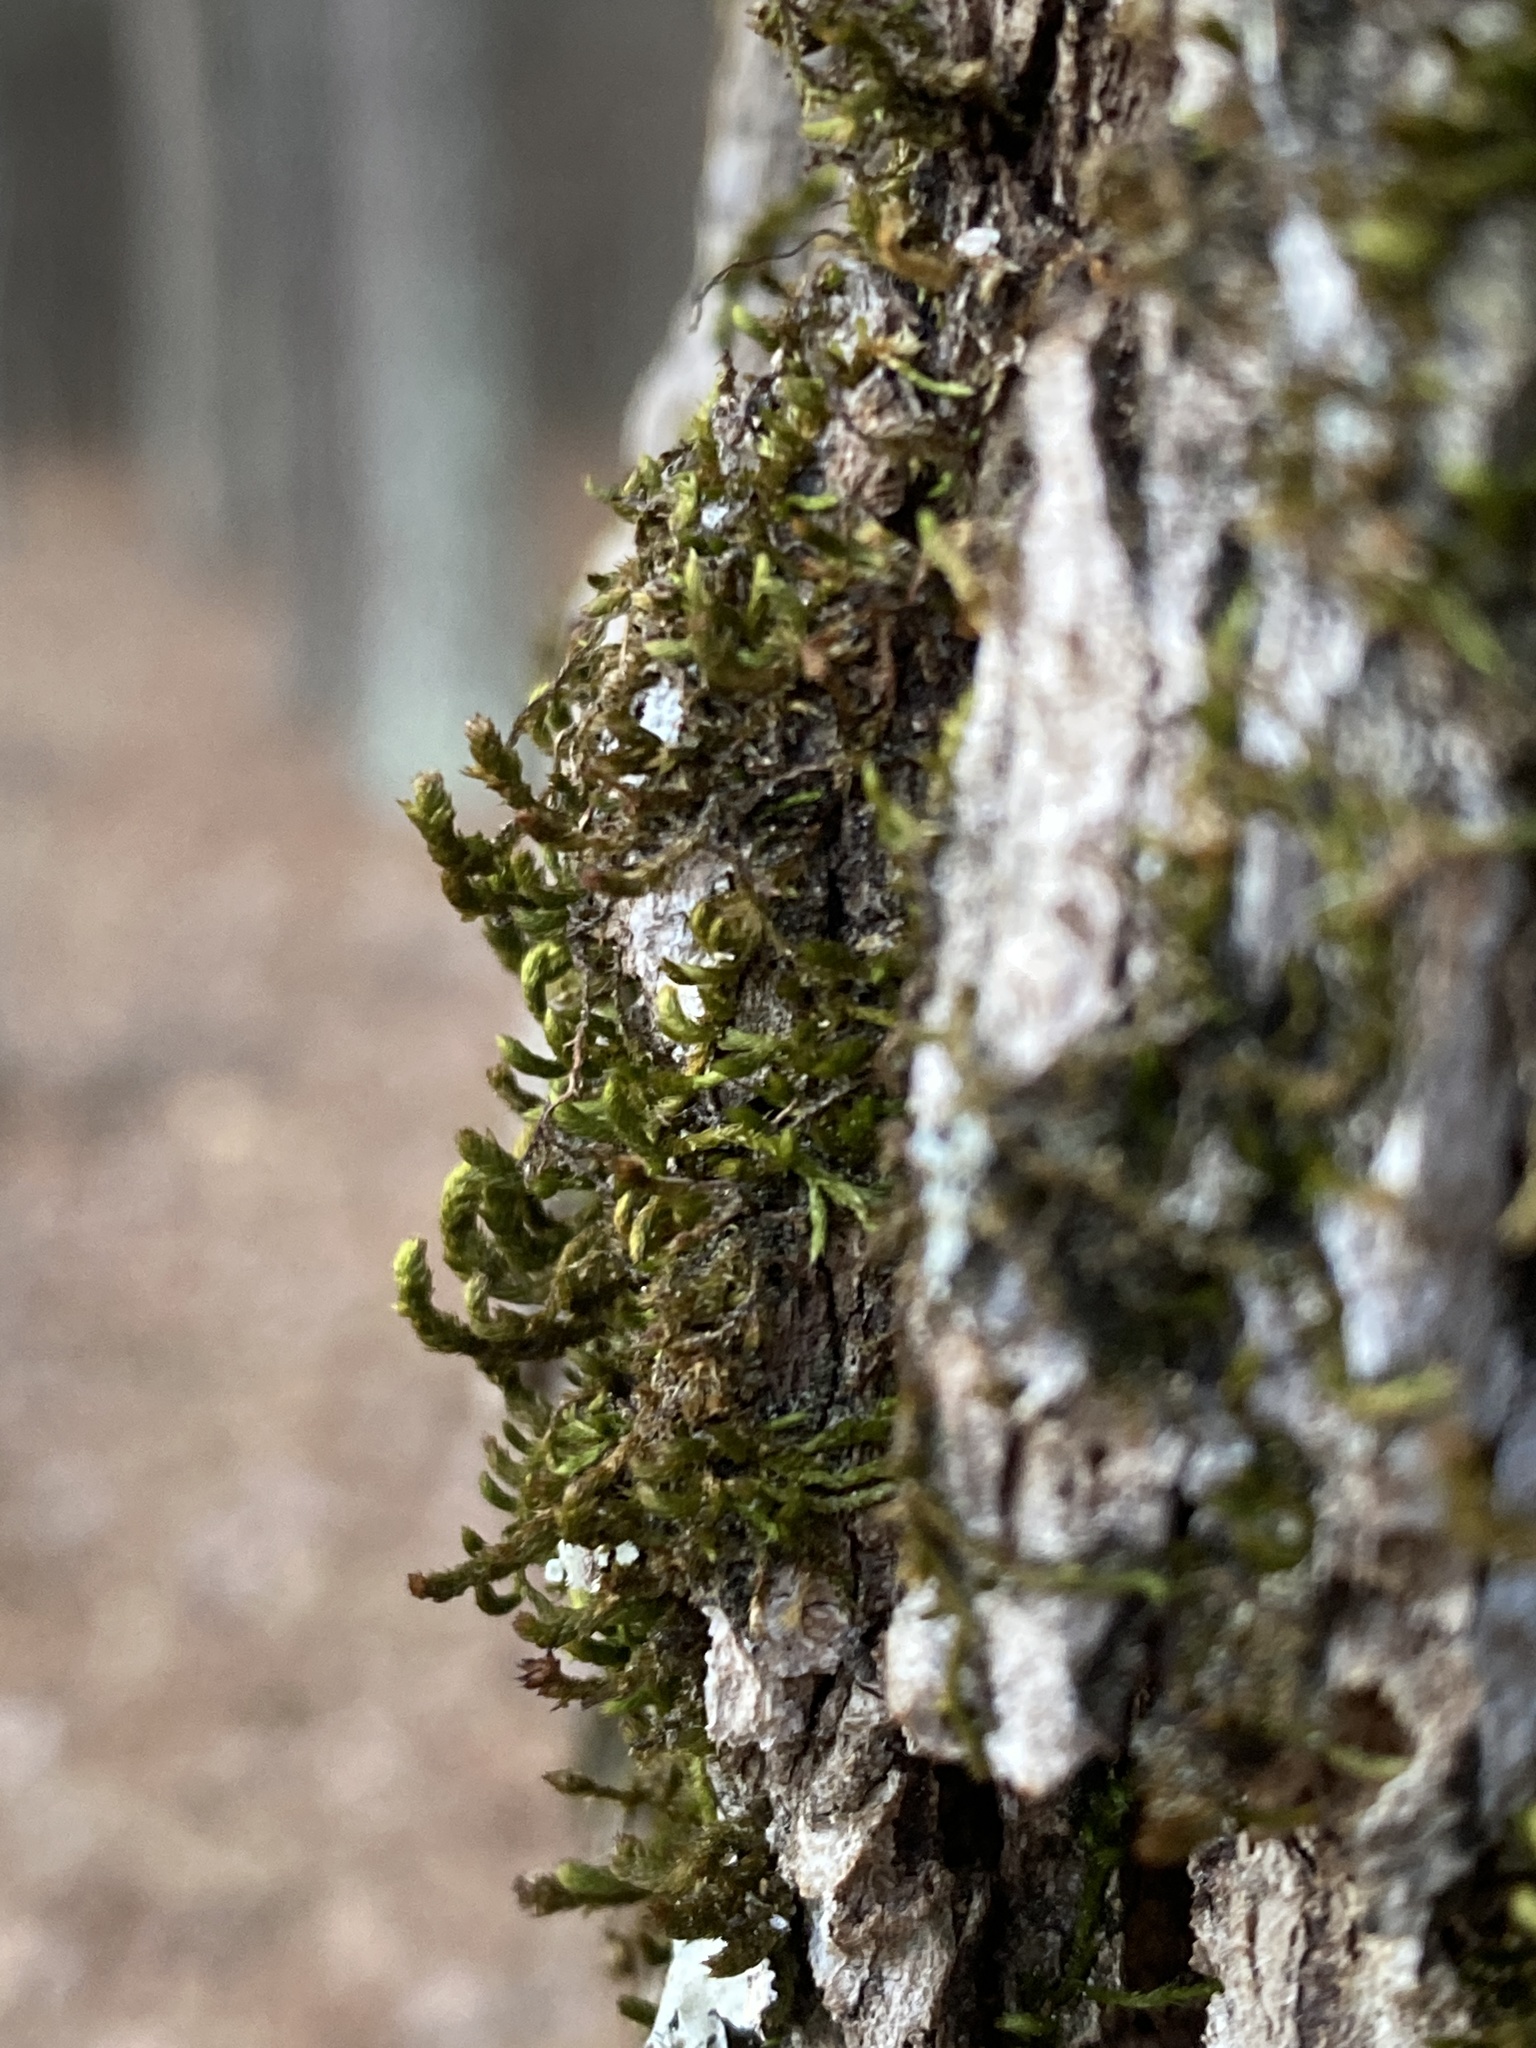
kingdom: Plantae
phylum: Bryophyta
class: Bryopsida
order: Hypnales
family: Leucodontaceae
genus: Leucodon
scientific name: Leucodon julaceus
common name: Smooth hook moss
